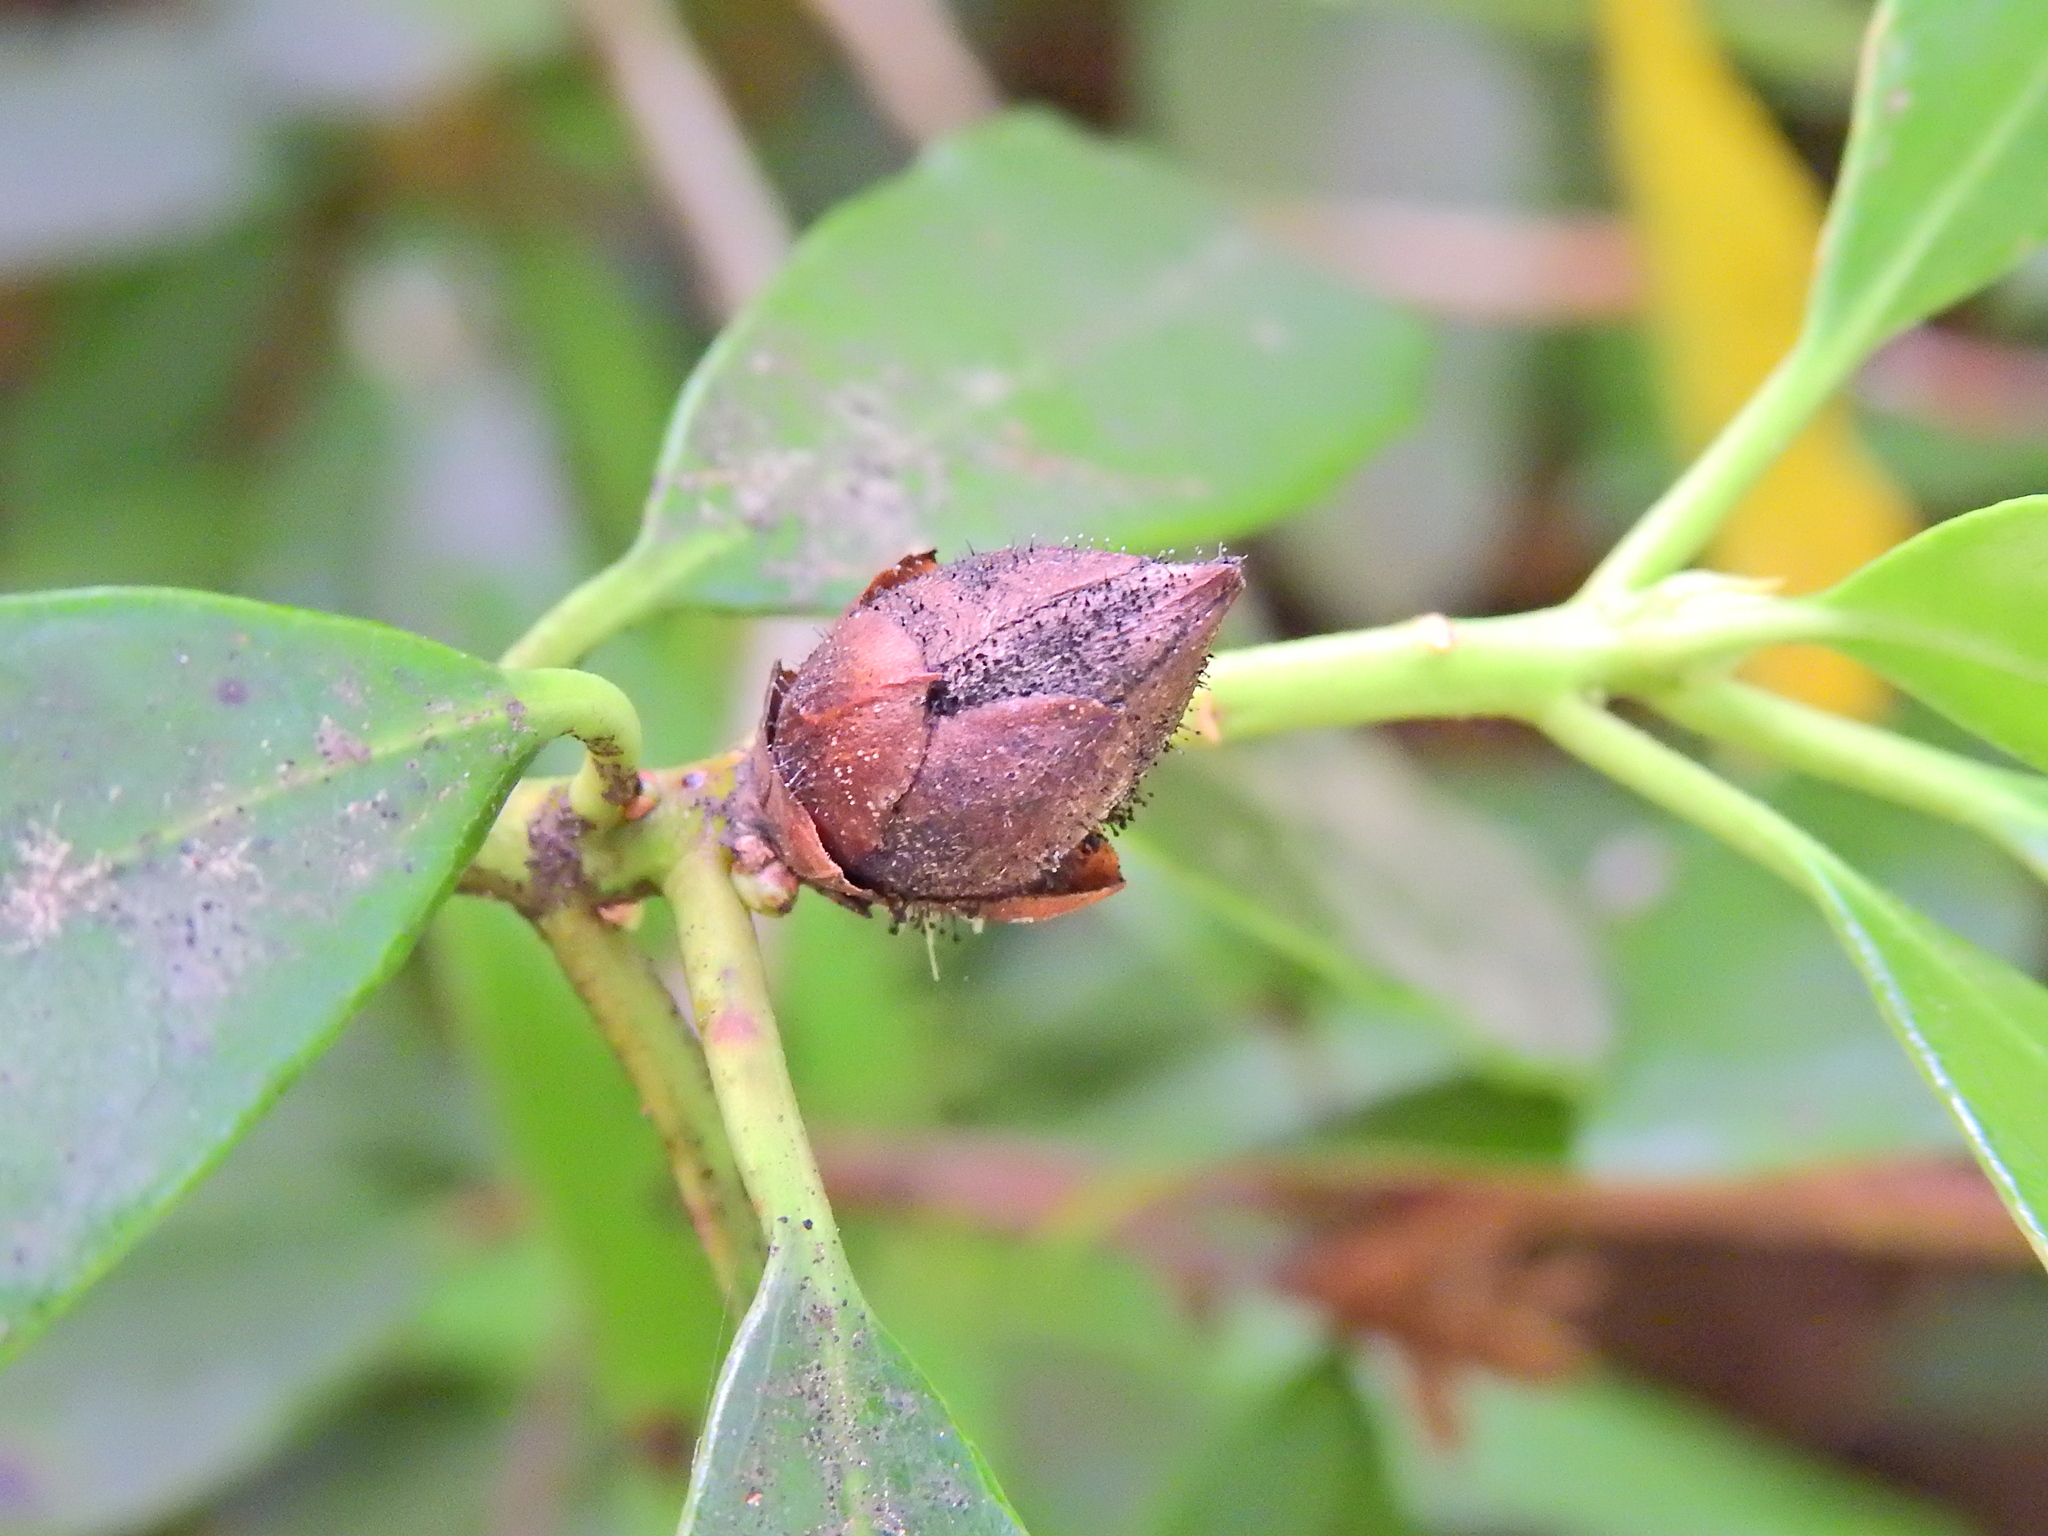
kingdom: Fungi
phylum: Ascomycota
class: Dothideomycetes
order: Pleosporales
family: Melanommataceae
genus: Seifertia
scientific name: Seifertia azaleae
